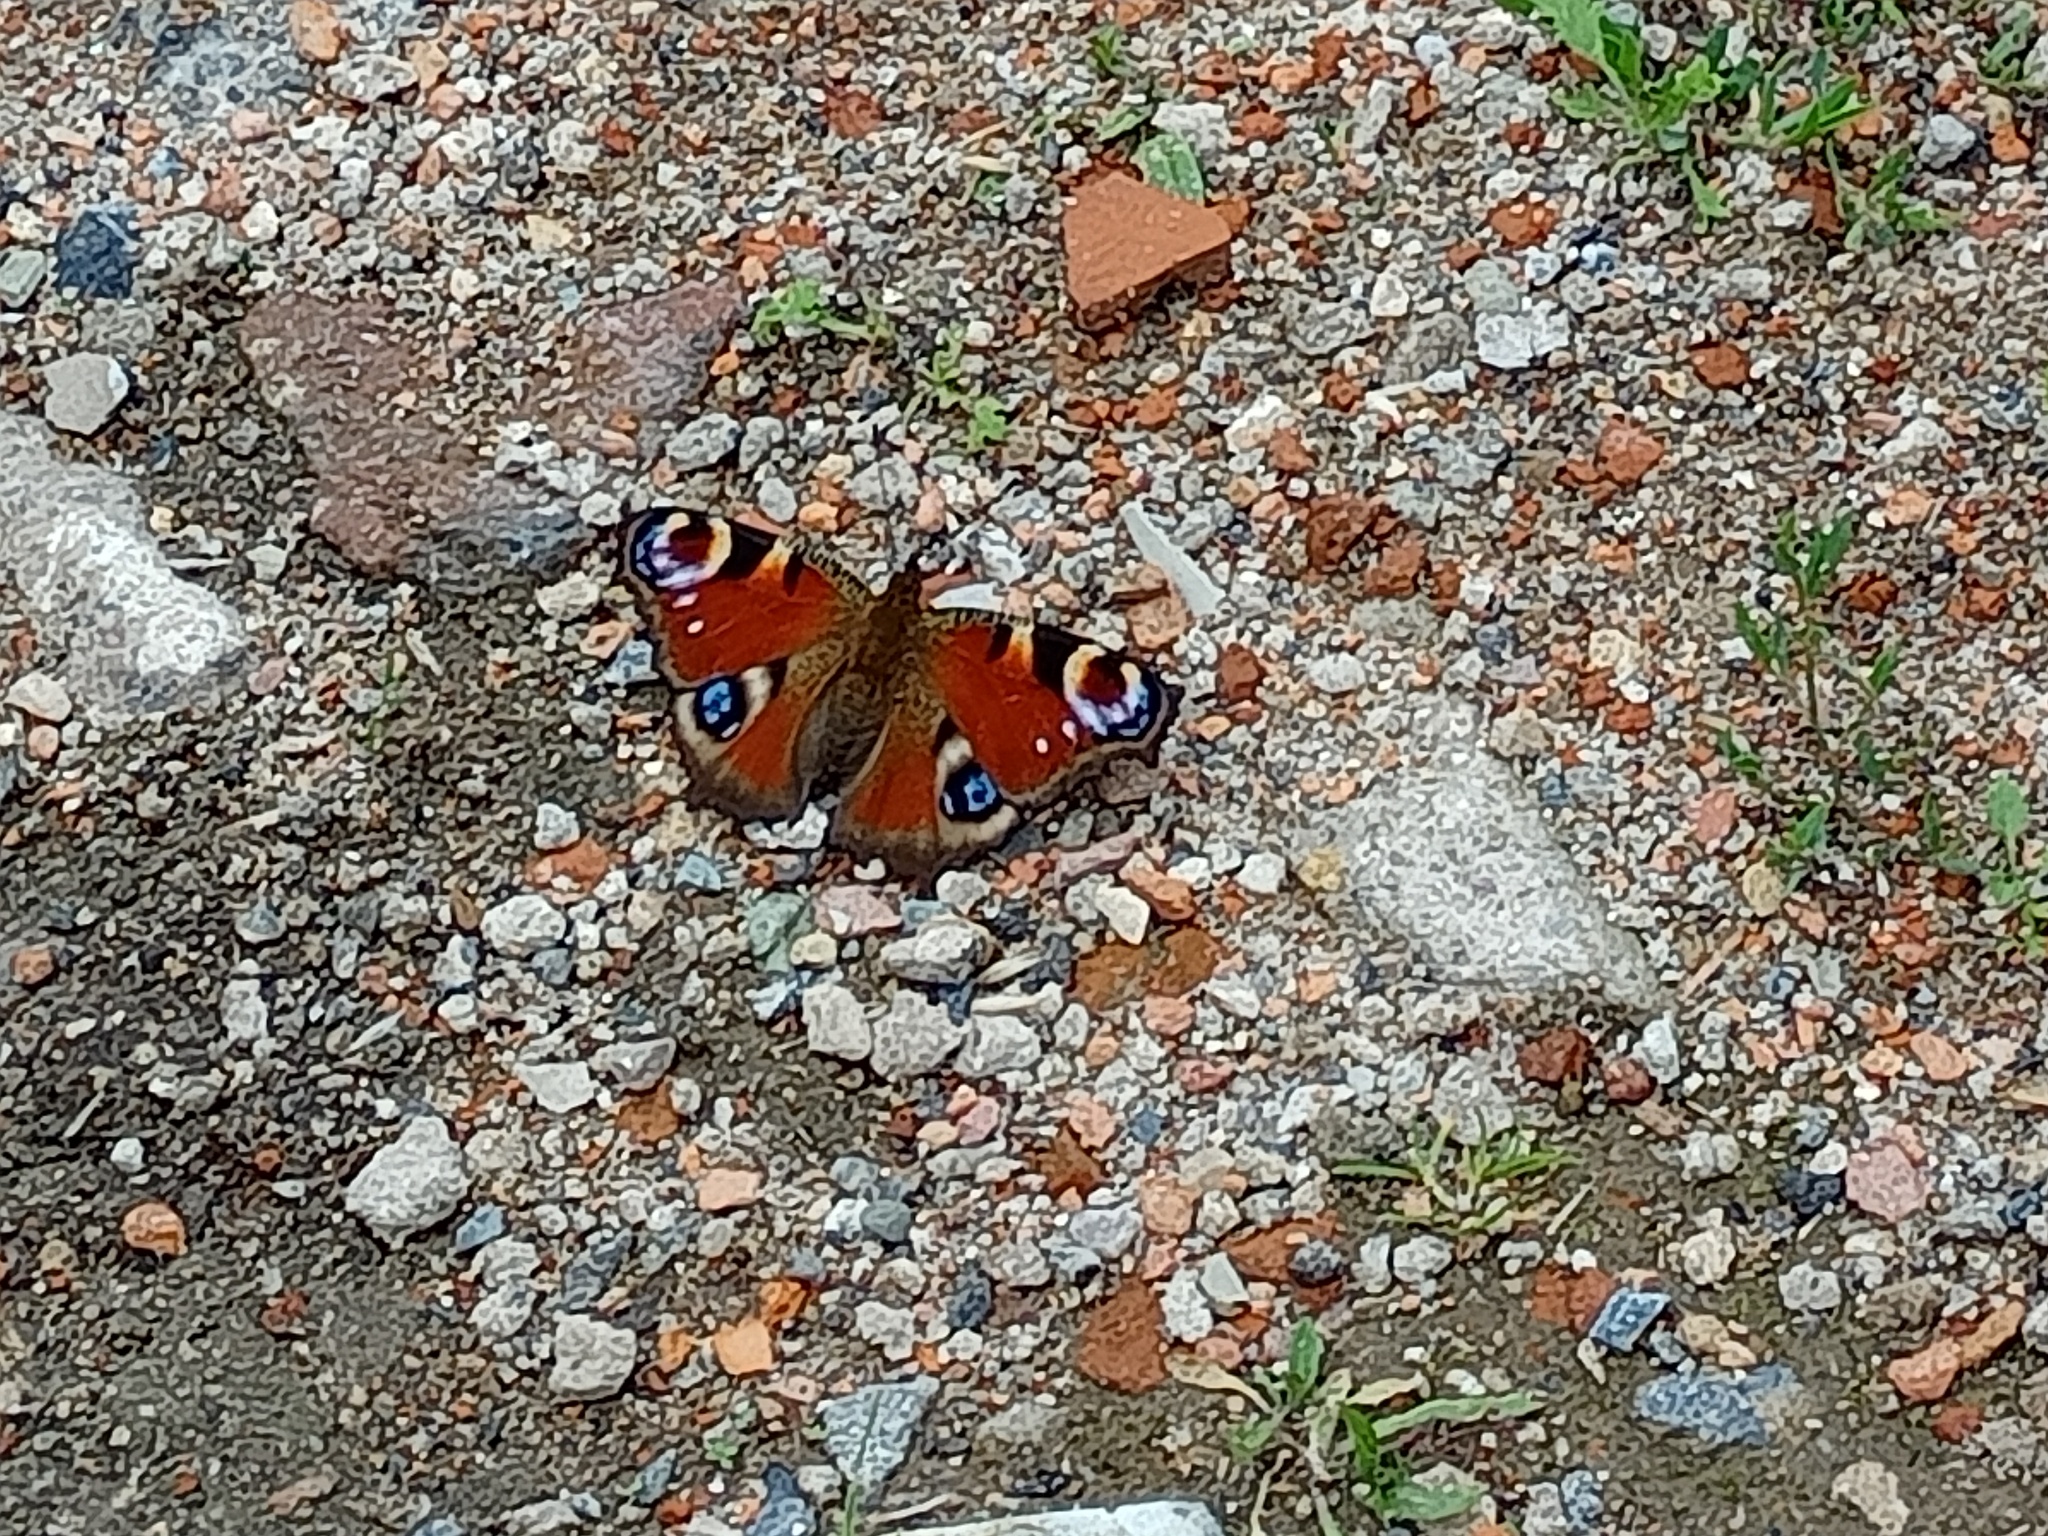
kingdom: Animalia
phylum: Arthropoda
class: Insecta
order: Lepidoptera
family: Nymphalidae
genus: Aglais
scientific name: Aglais io
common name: Peacock
